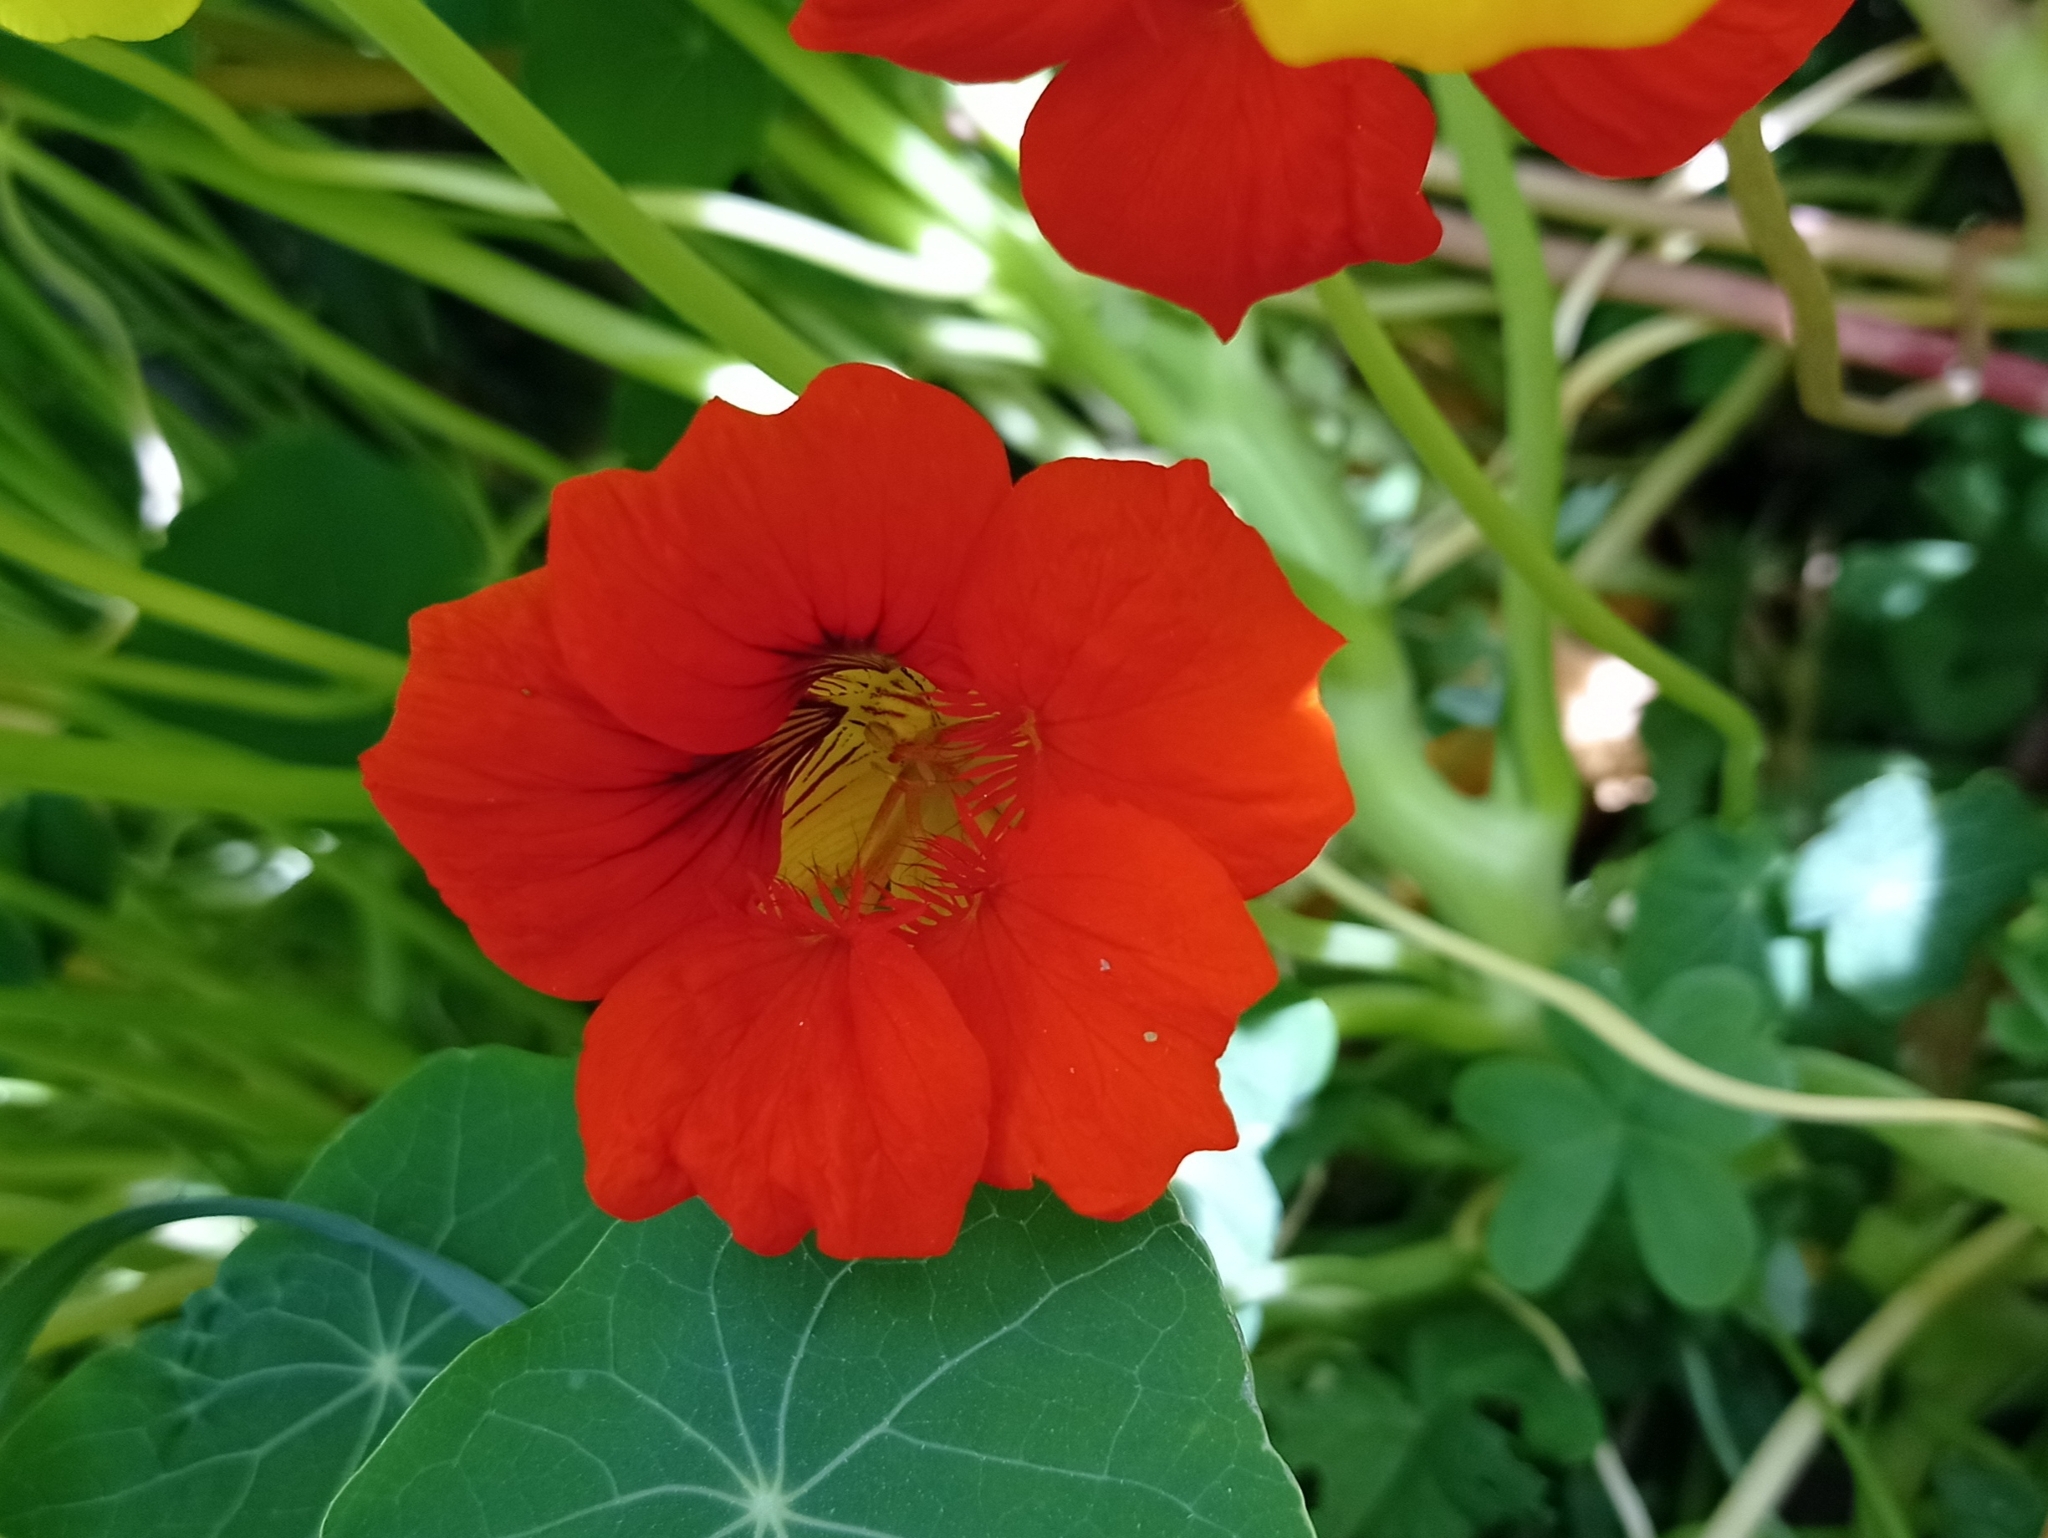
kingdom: Plantae
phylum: Tracheophyta
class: Magnoliopsida
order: Brassicales
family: Tropaeolaceae
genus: Tropaeolum
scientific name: Tropaeolum majus
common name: Nasturtium
